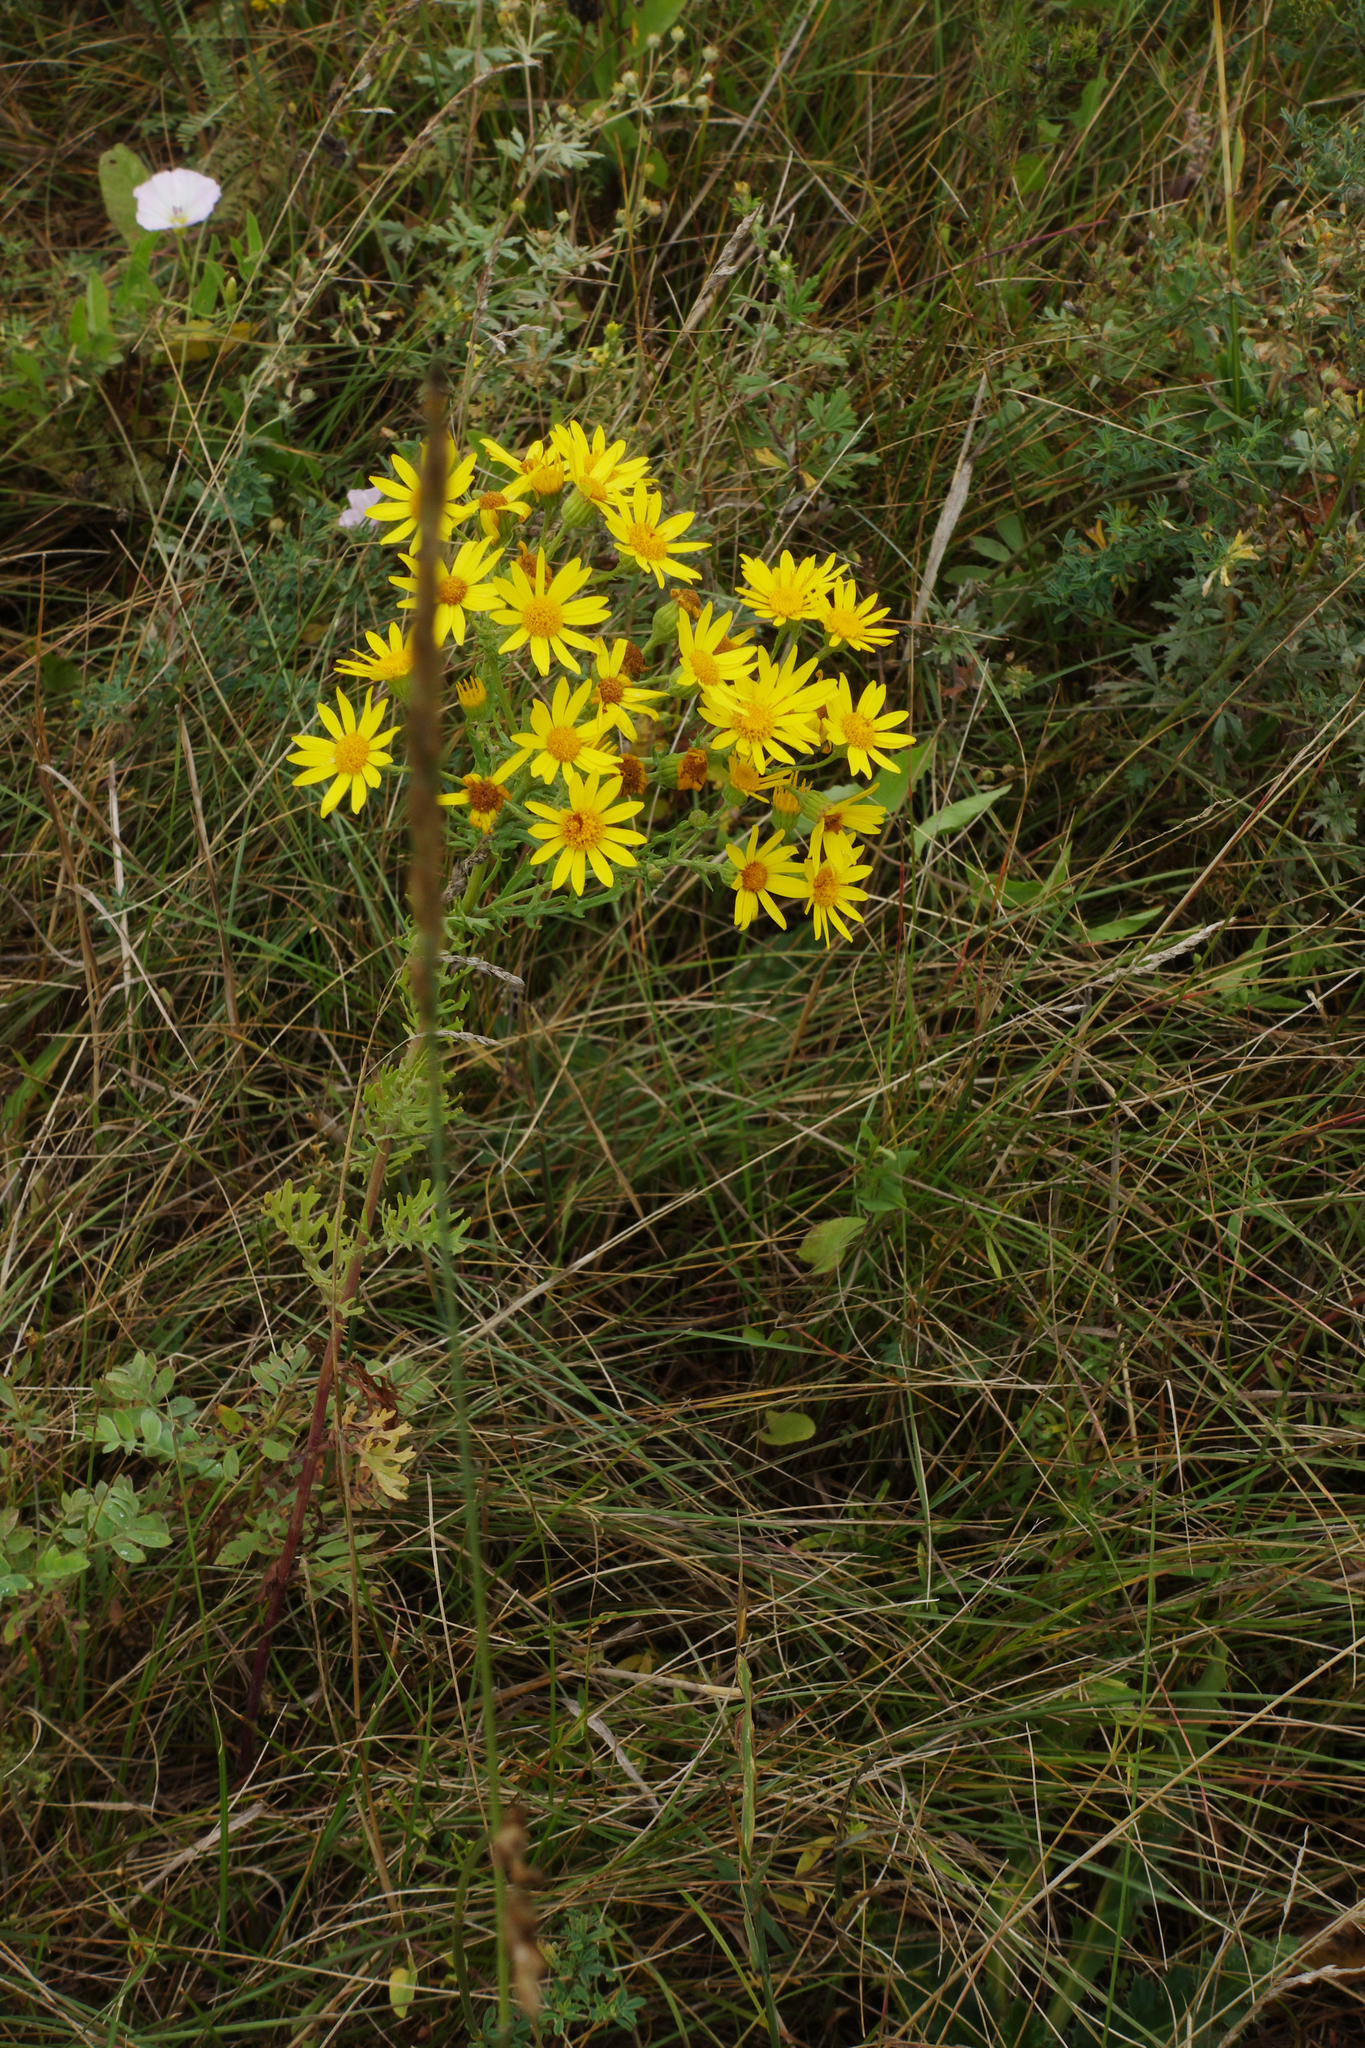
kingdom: Plantae
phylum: Tracheophyta
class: Magnoliopsida
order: Asterales
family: Asteraceae
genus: Jacobaea
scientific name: Jacobaea vulgaris
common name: Stinking willie
